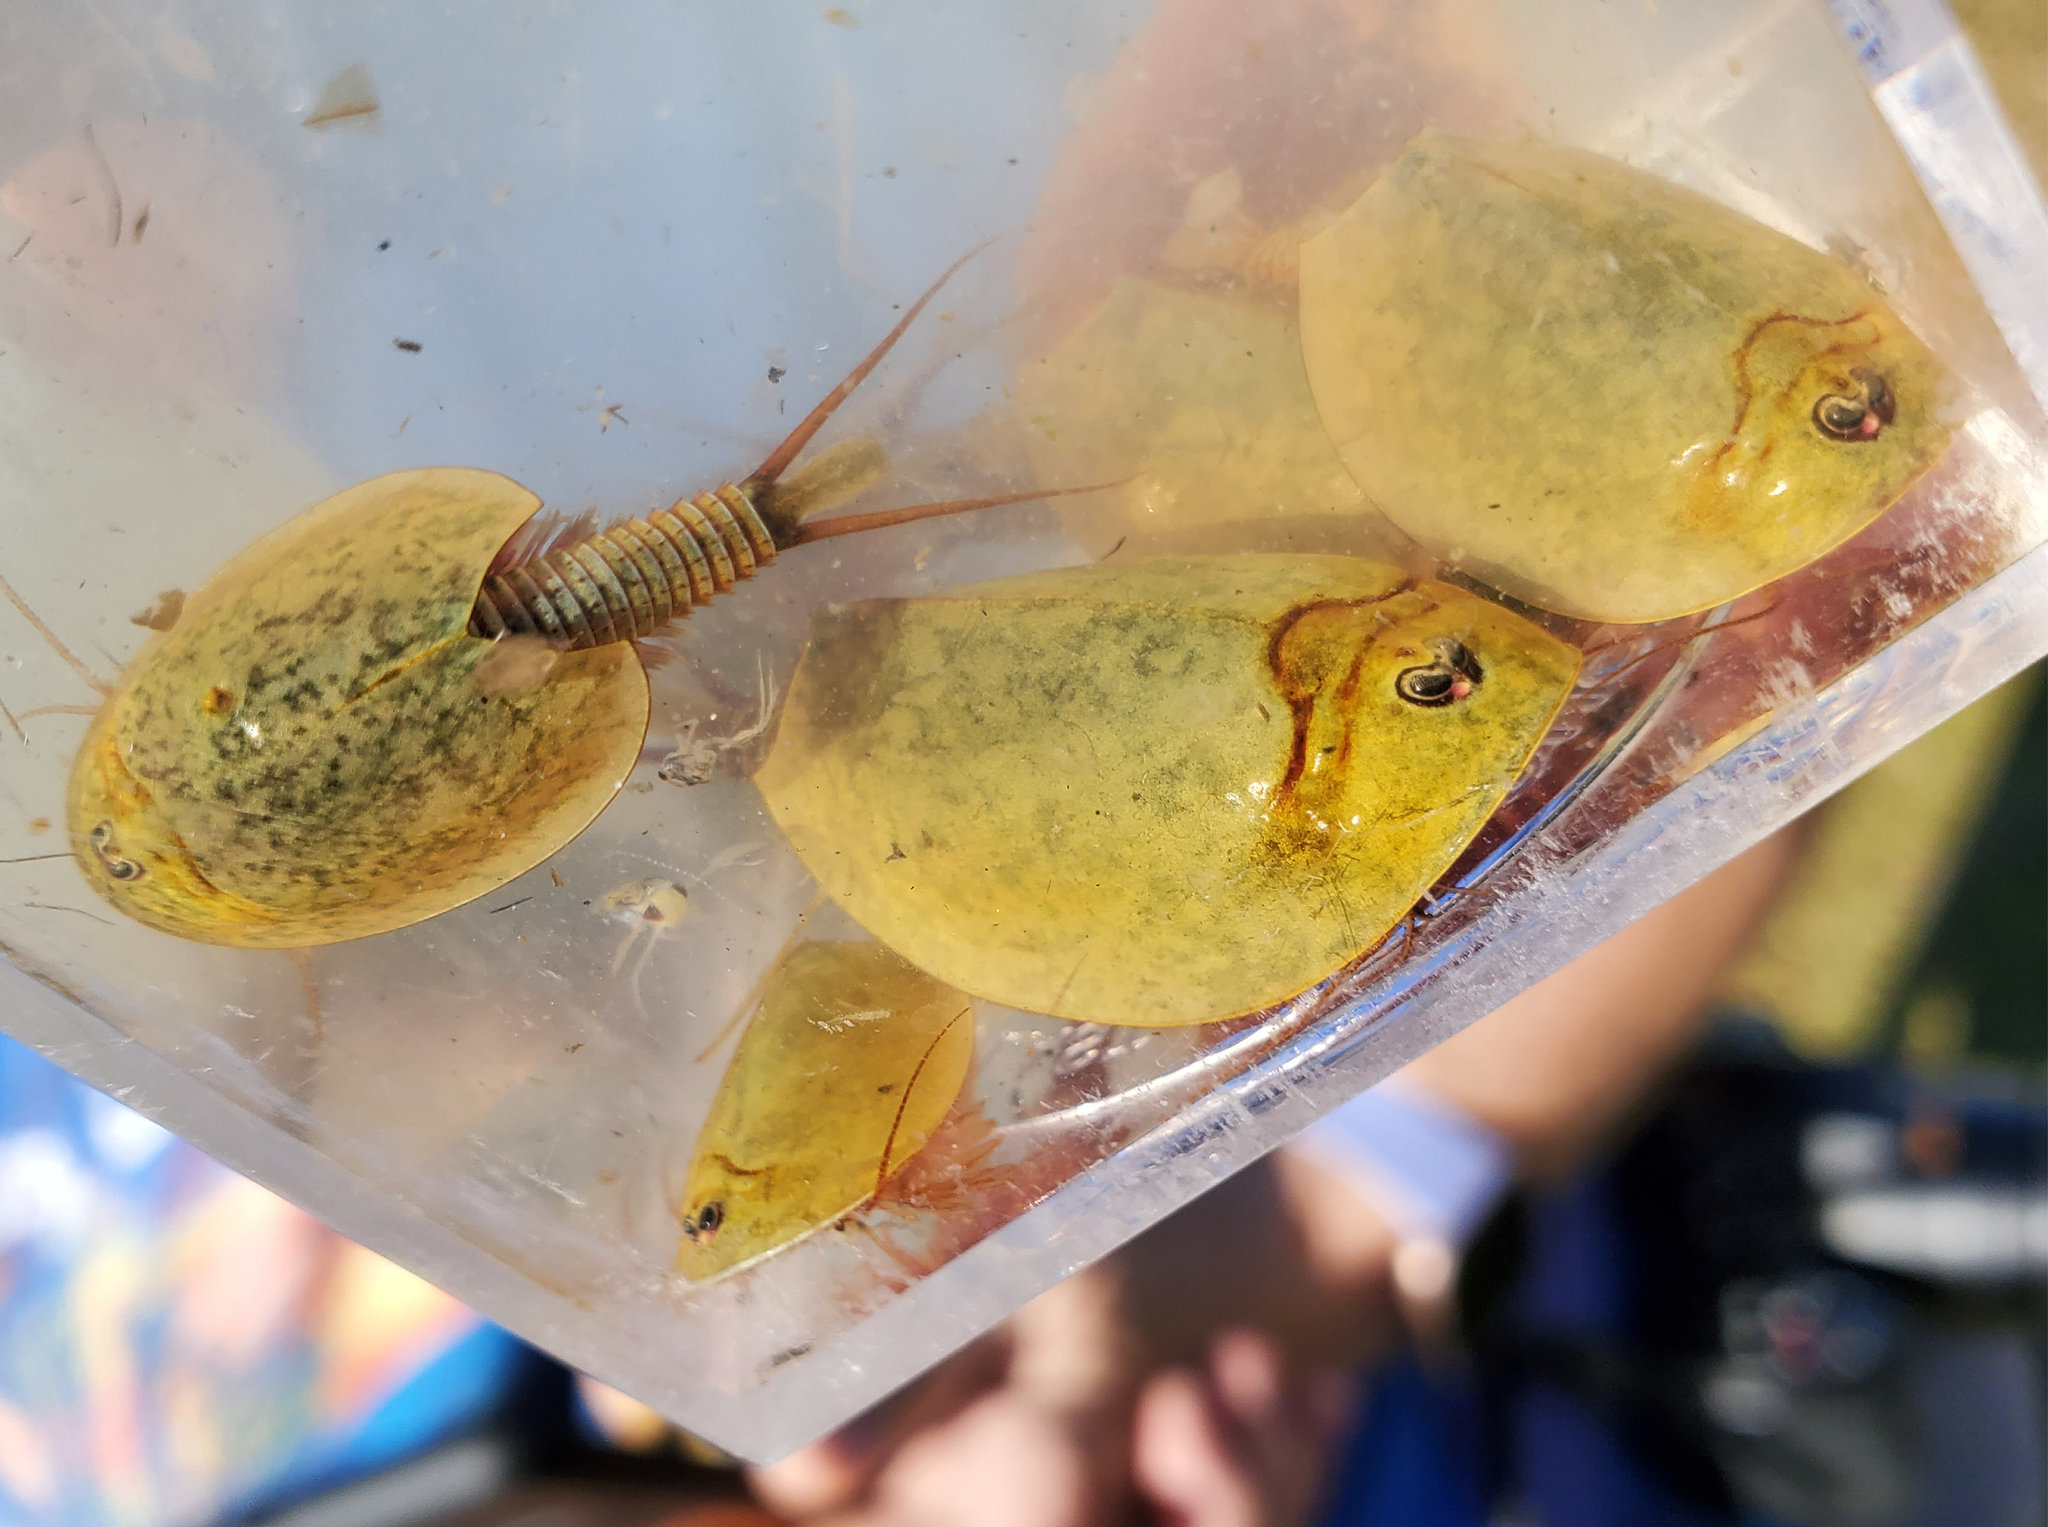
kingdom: Animalia
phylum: Arthropoda
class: Branchiopoda
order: Notostraca
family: Triopsidae
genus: Lepidurus
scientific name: Lepidurus packardi
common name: Vernal pool tadpole shrimp
